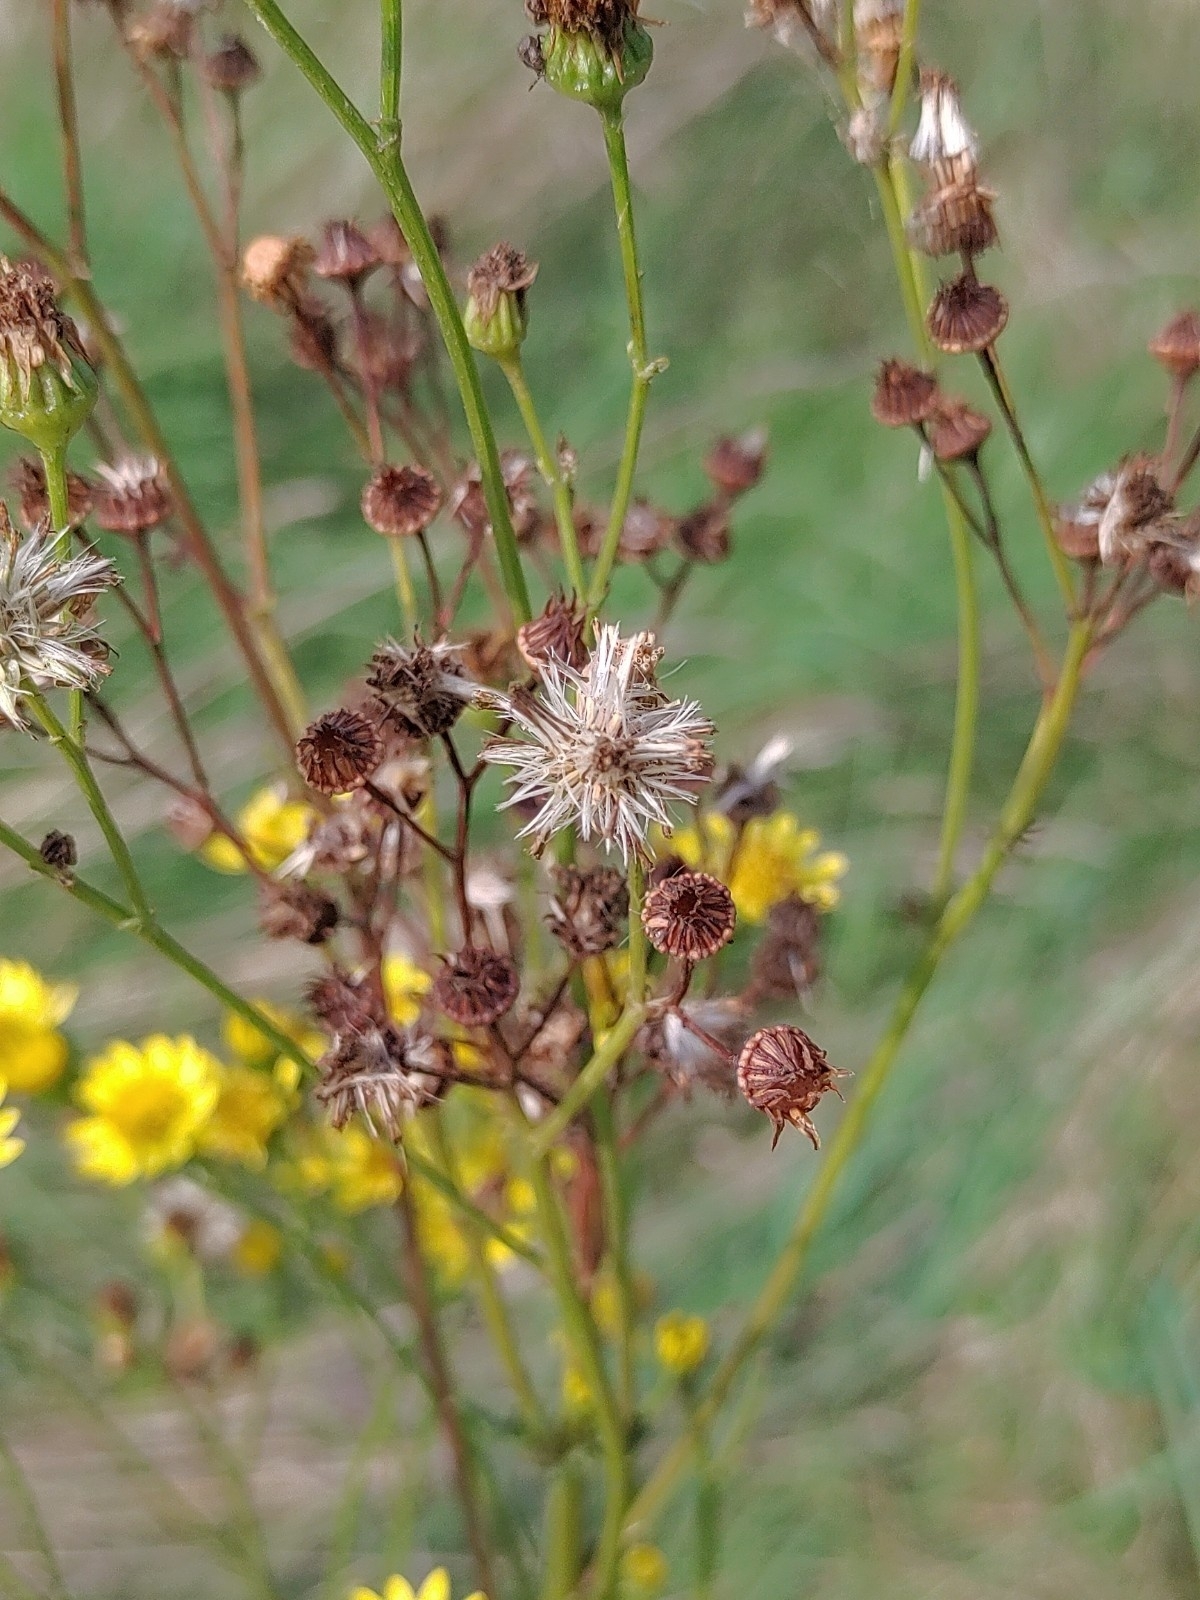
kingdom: Plantae
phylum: Tracheophyta
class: Magnoliopsida
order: Asterales
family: Asteraceae
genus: Jacobaea
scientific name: Jacobaea vulgaris
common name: Stinking willie
